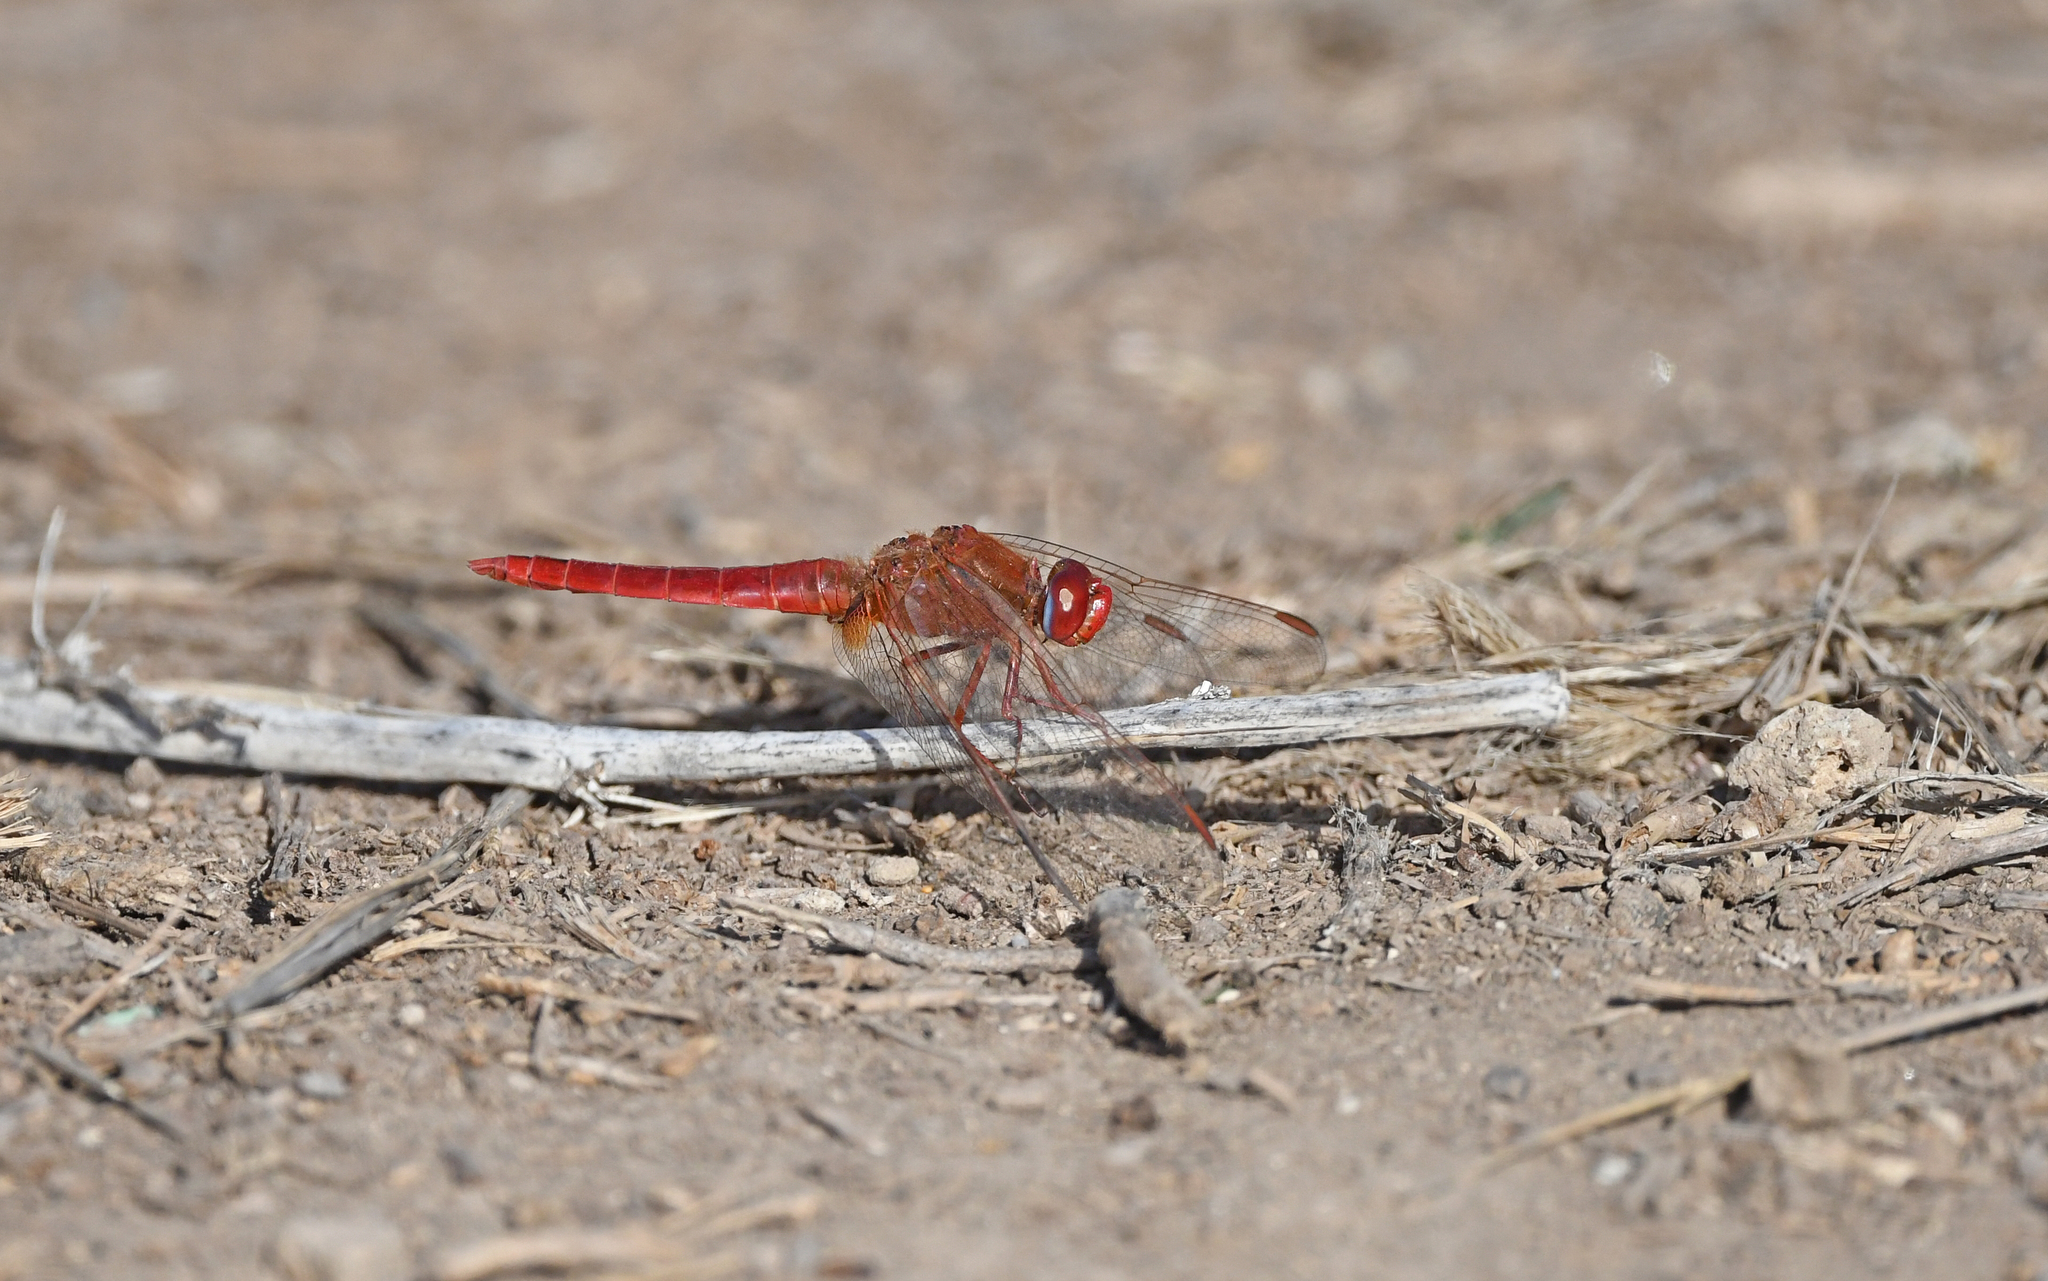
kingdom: Animalia
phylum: Arthropoda
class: Insecta
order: Odonata
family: Libellulidae
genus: Crocothemis
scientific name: Crocothemis erythraea
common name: Scarlet dragonfly
